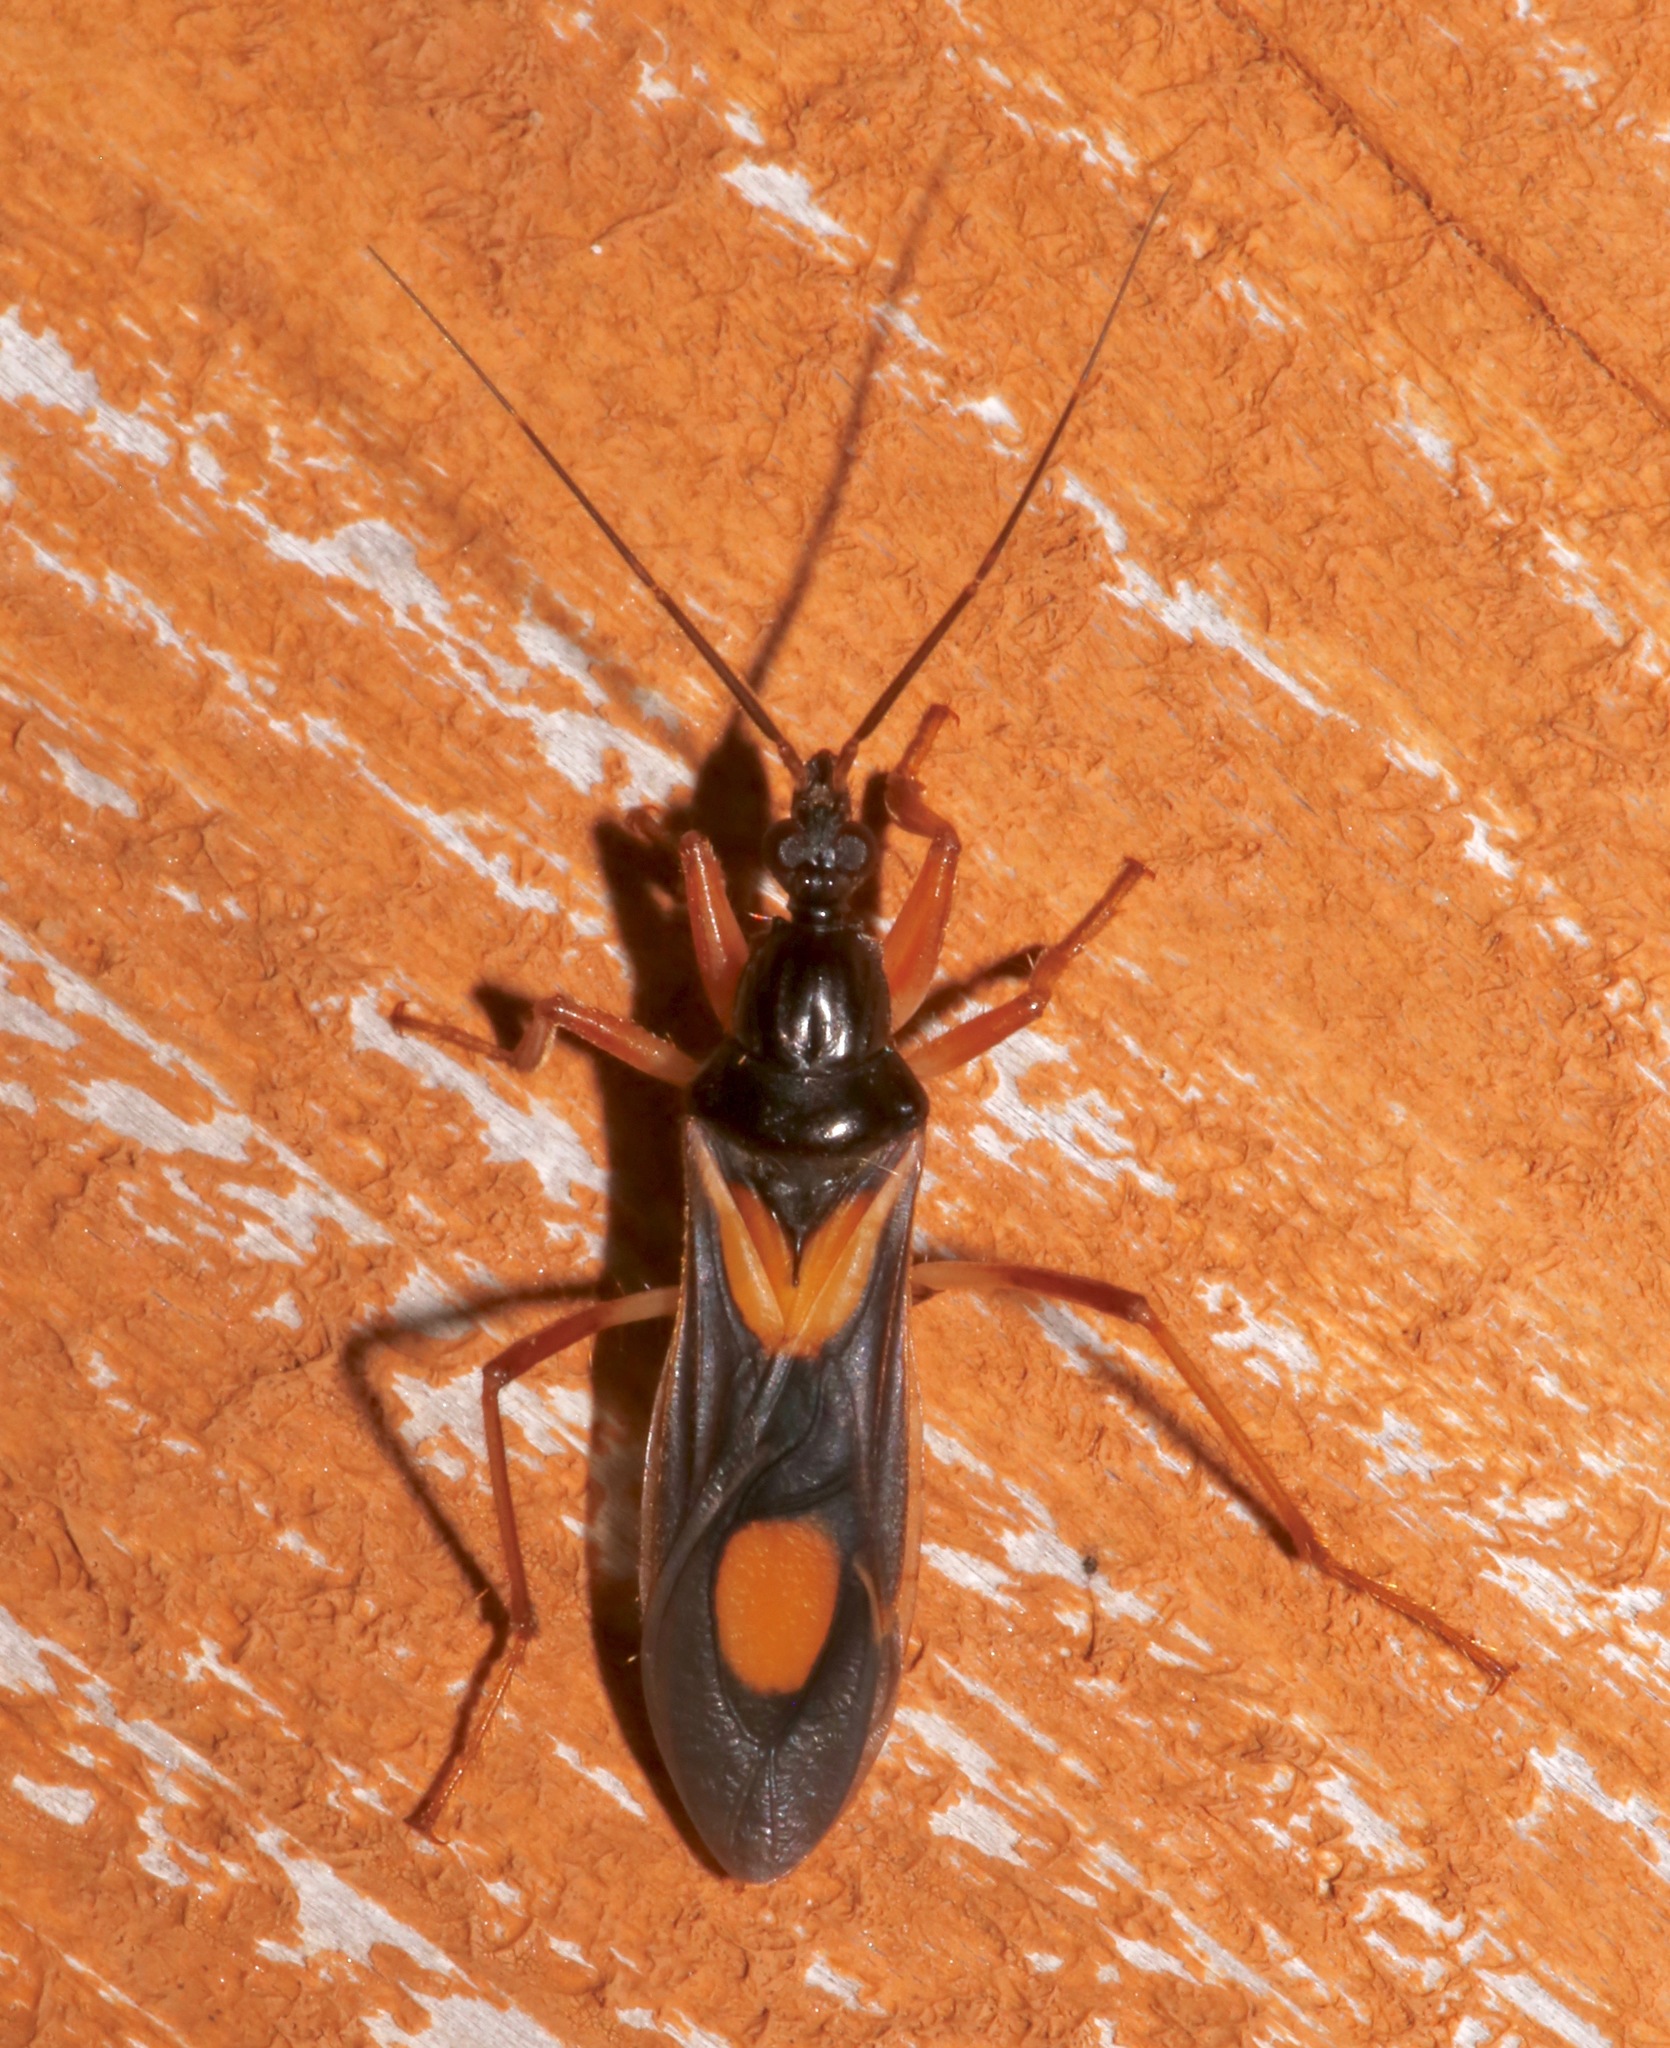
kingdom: Animalia
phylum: Arthropoda
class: Insecta
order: Hemiptera
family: Reduviidae
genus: Rasahus
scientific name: Rasahus hamatus
